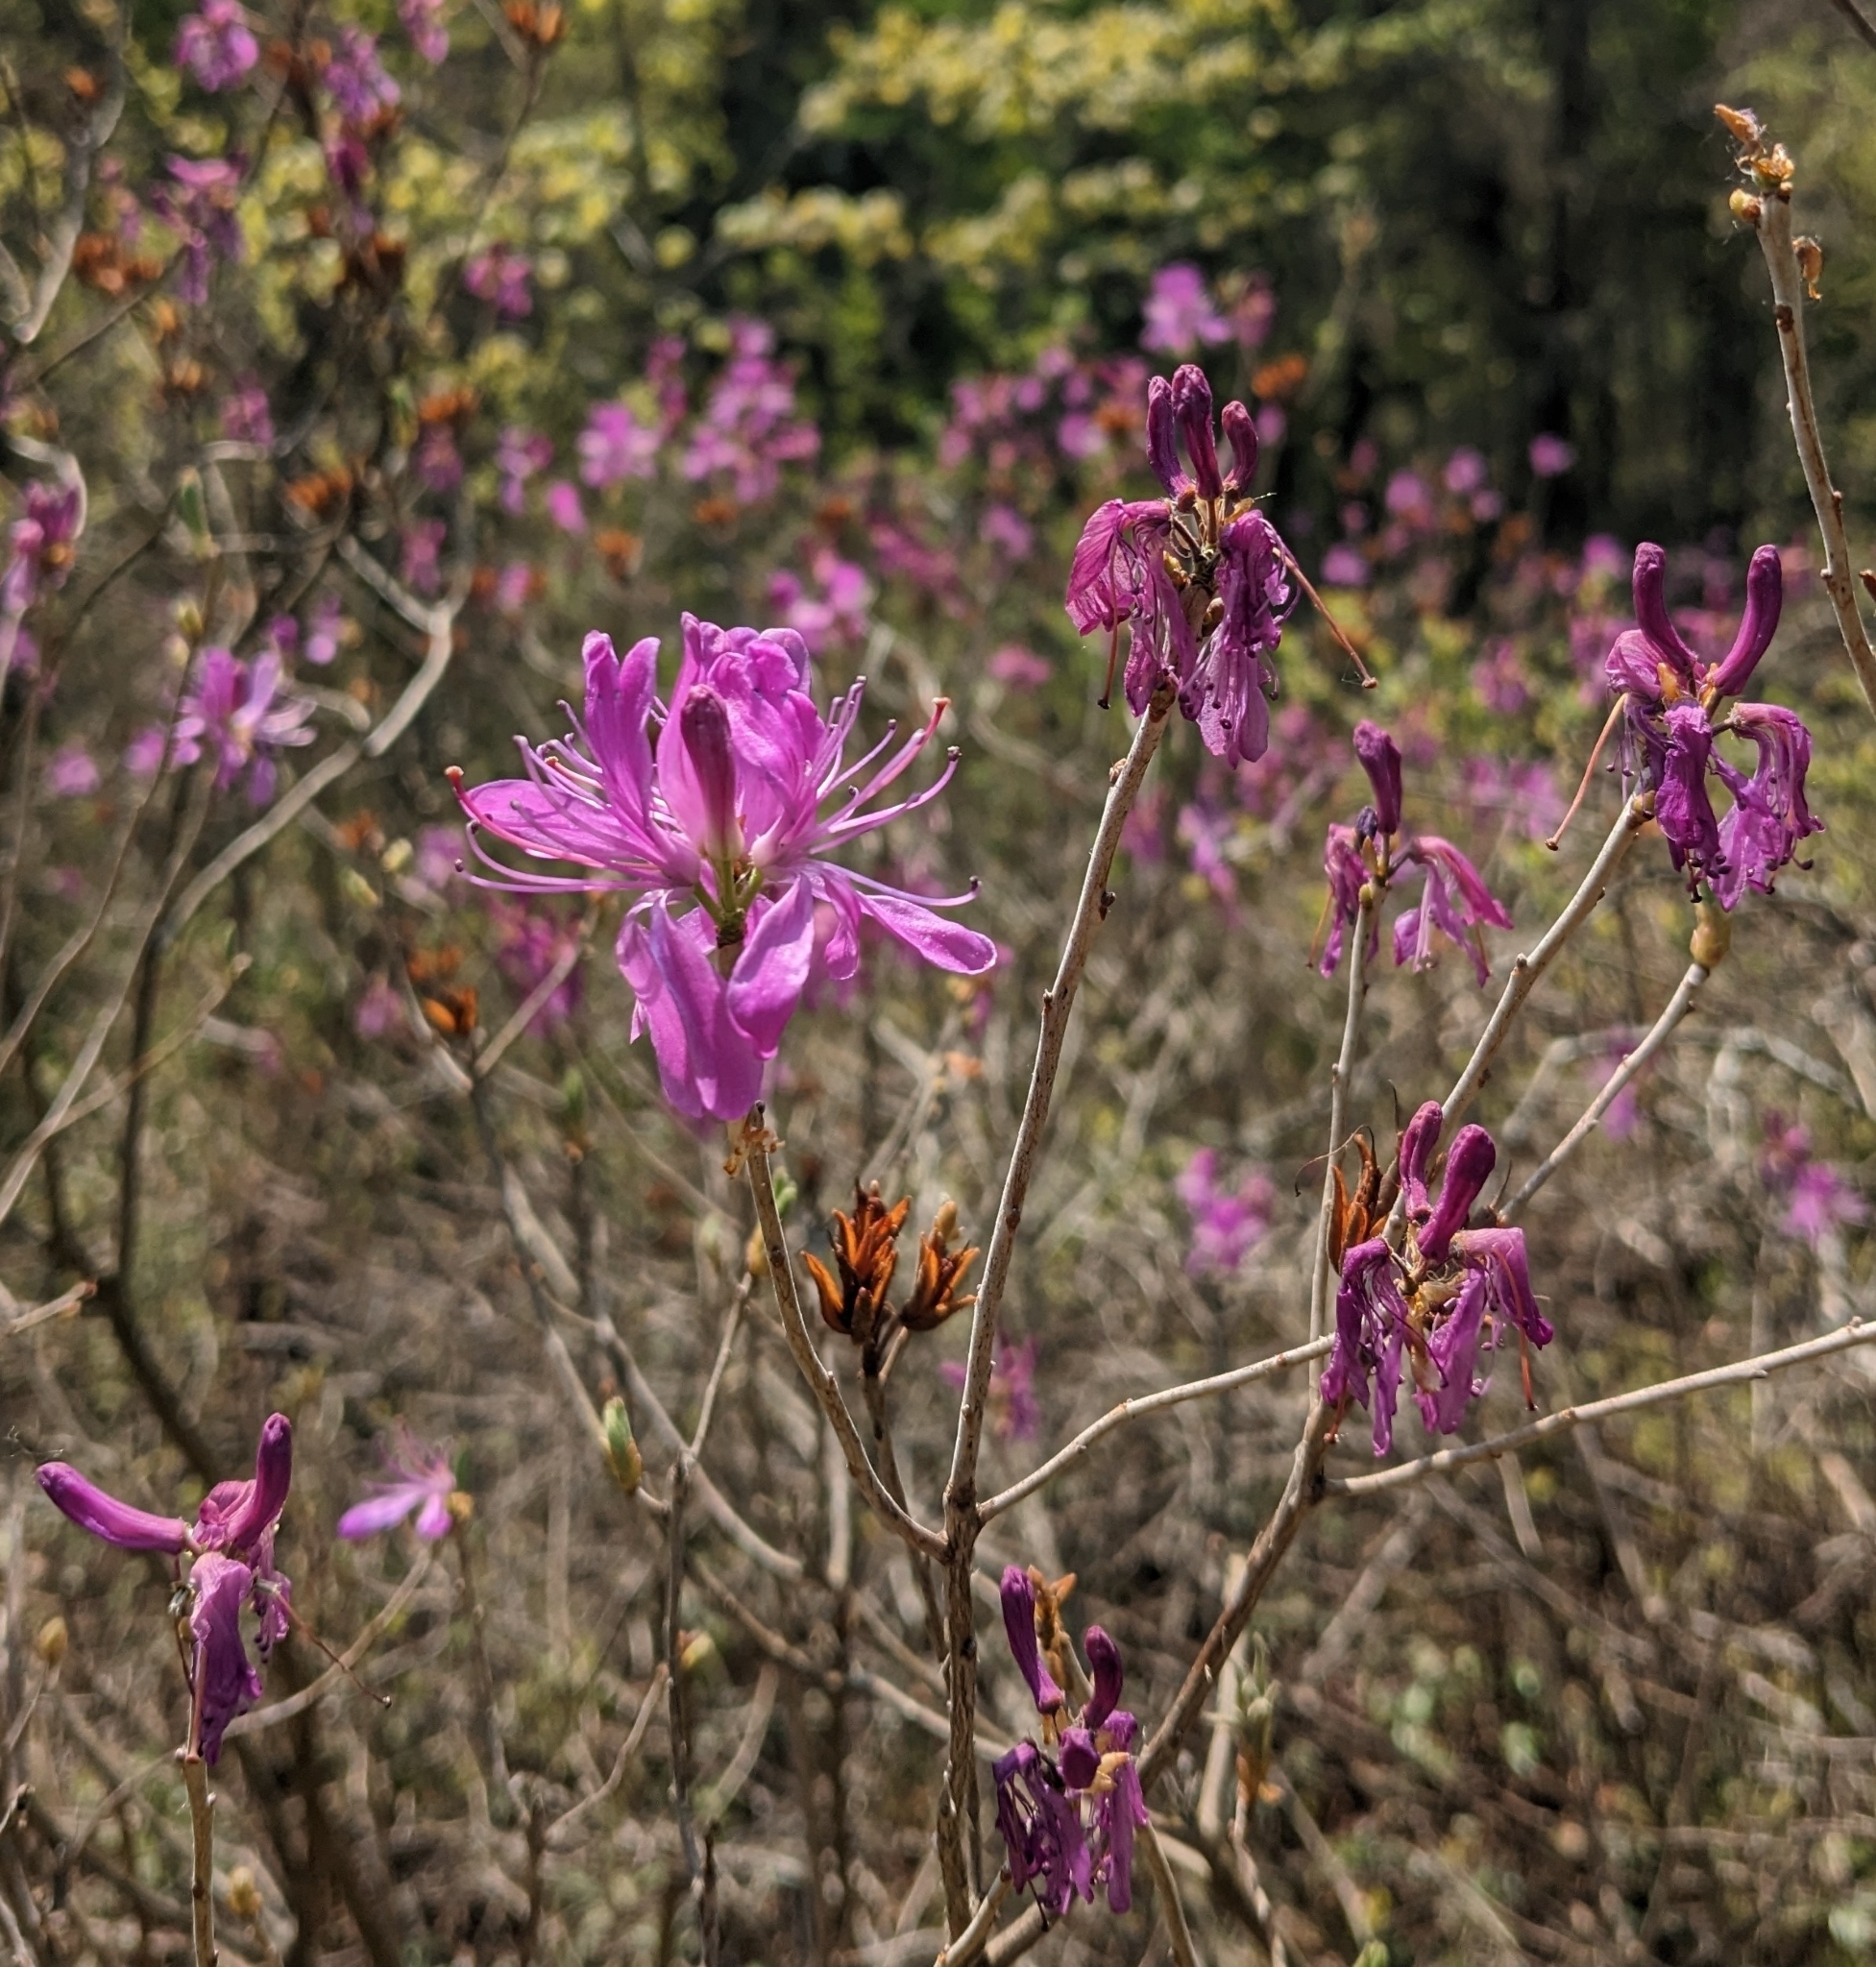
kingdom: Plantae
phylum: Tracheophyta
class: Magnoliopsida
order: Ericales
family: Ericaceae
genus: Rhododendron
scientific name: Rhododendron canadense
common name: Rhodora
